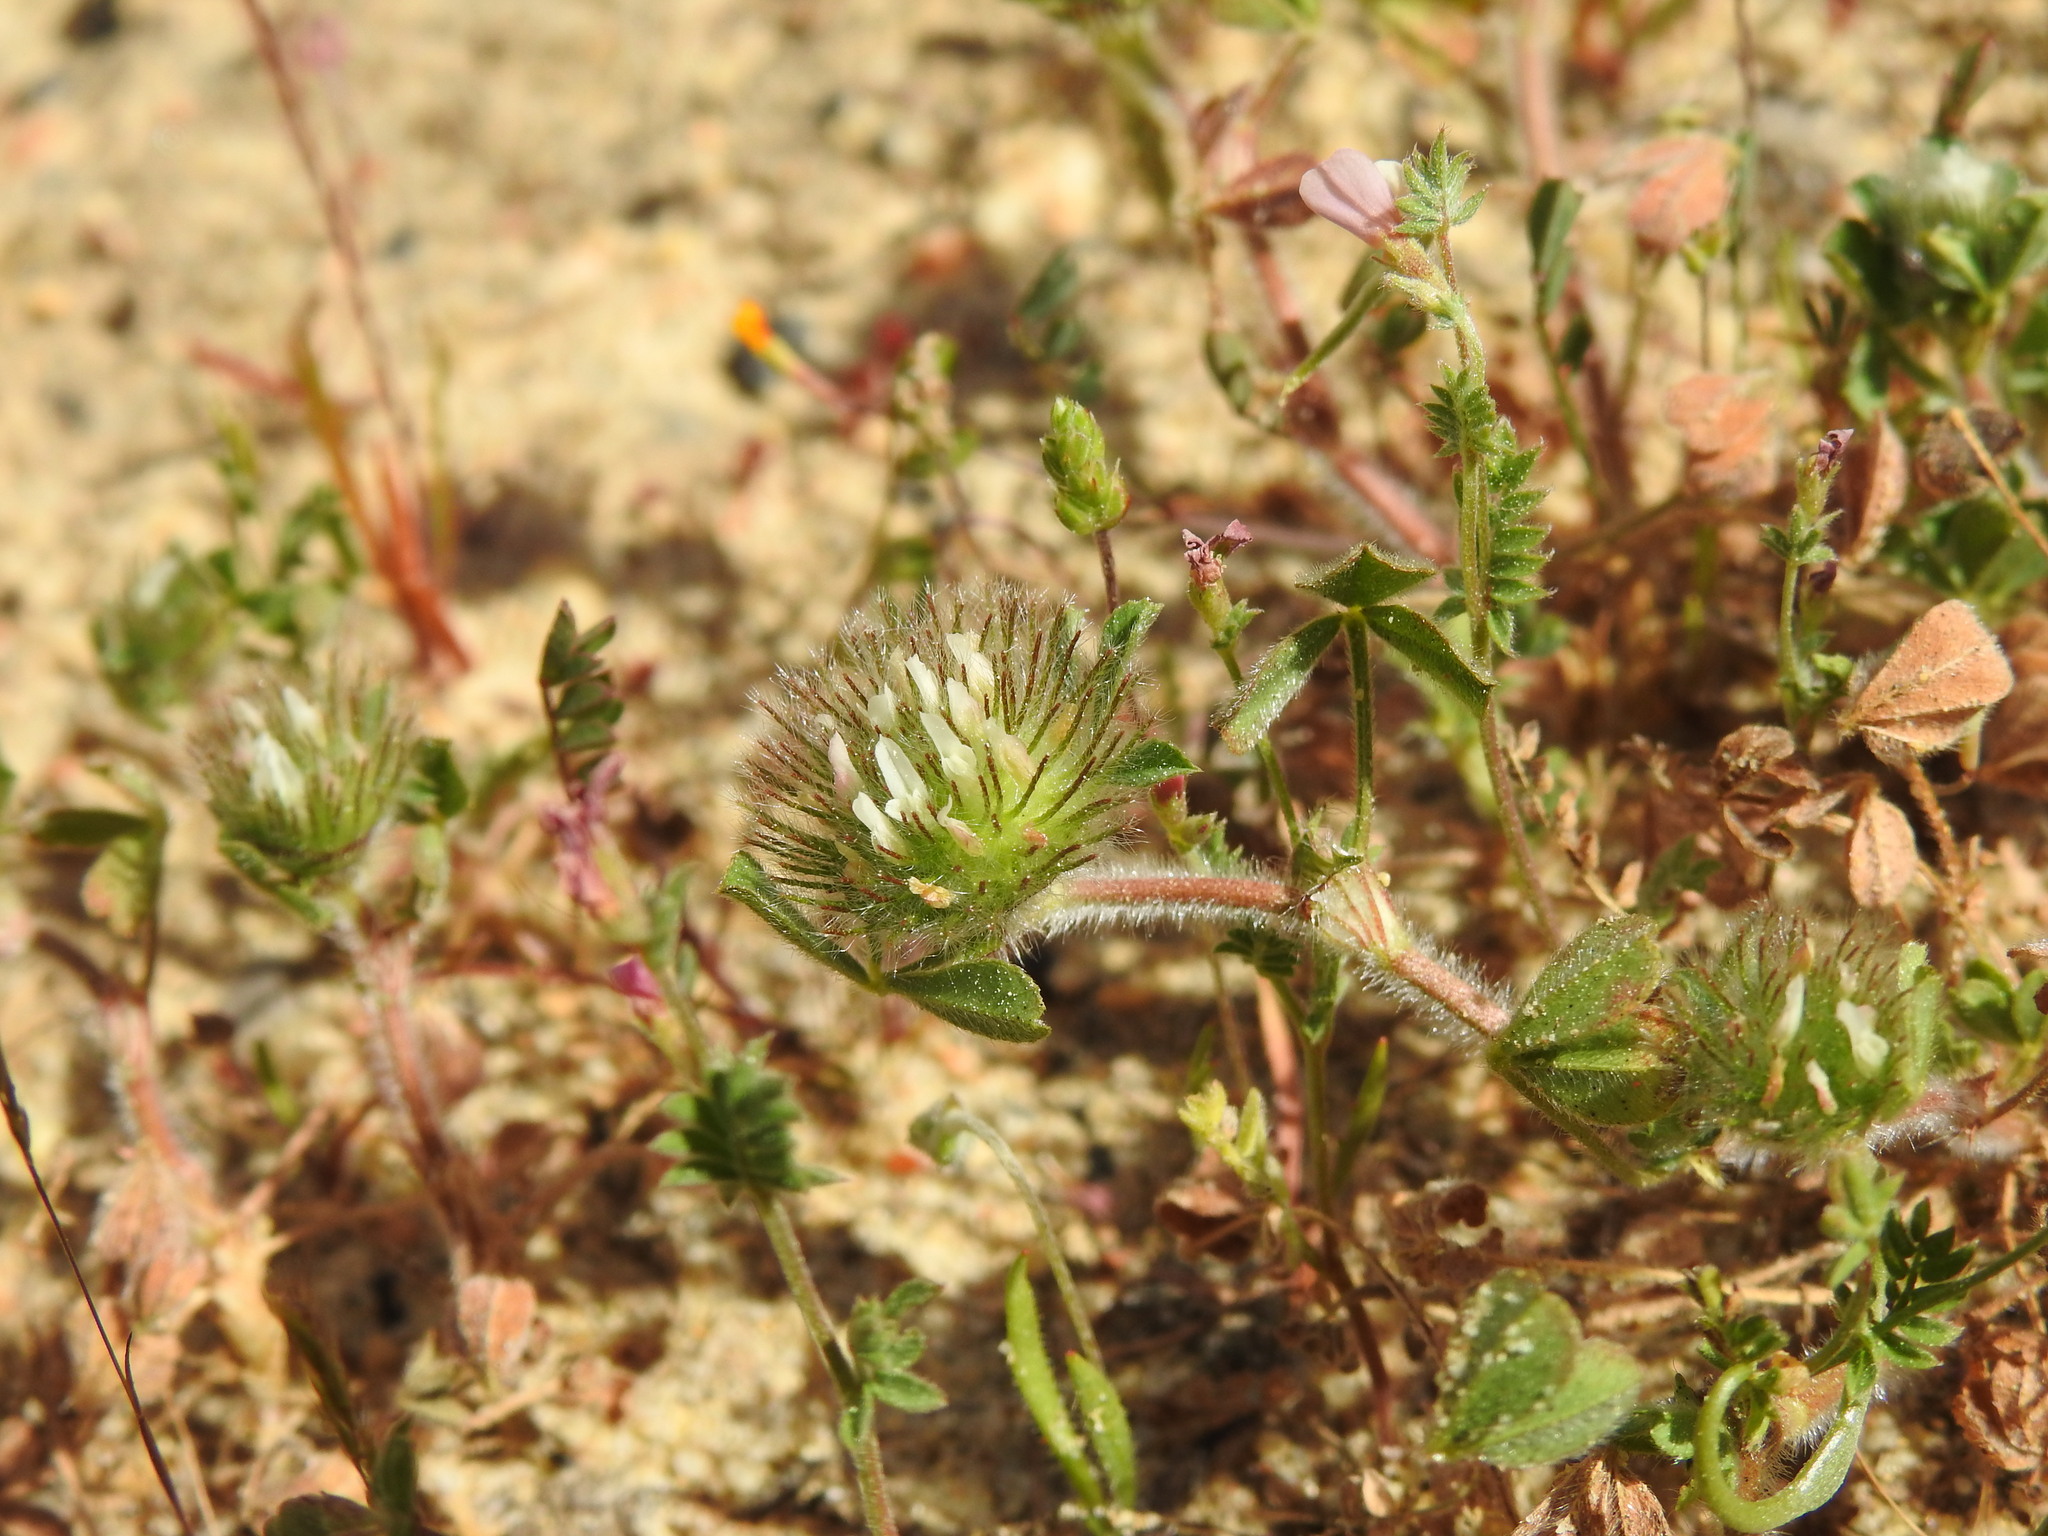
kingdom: Plantae
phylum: Tracheophyta
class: Magnoliopsida
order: Fabales
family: Fabaceae
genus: Trifolium
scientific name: Trifolium cherleri
